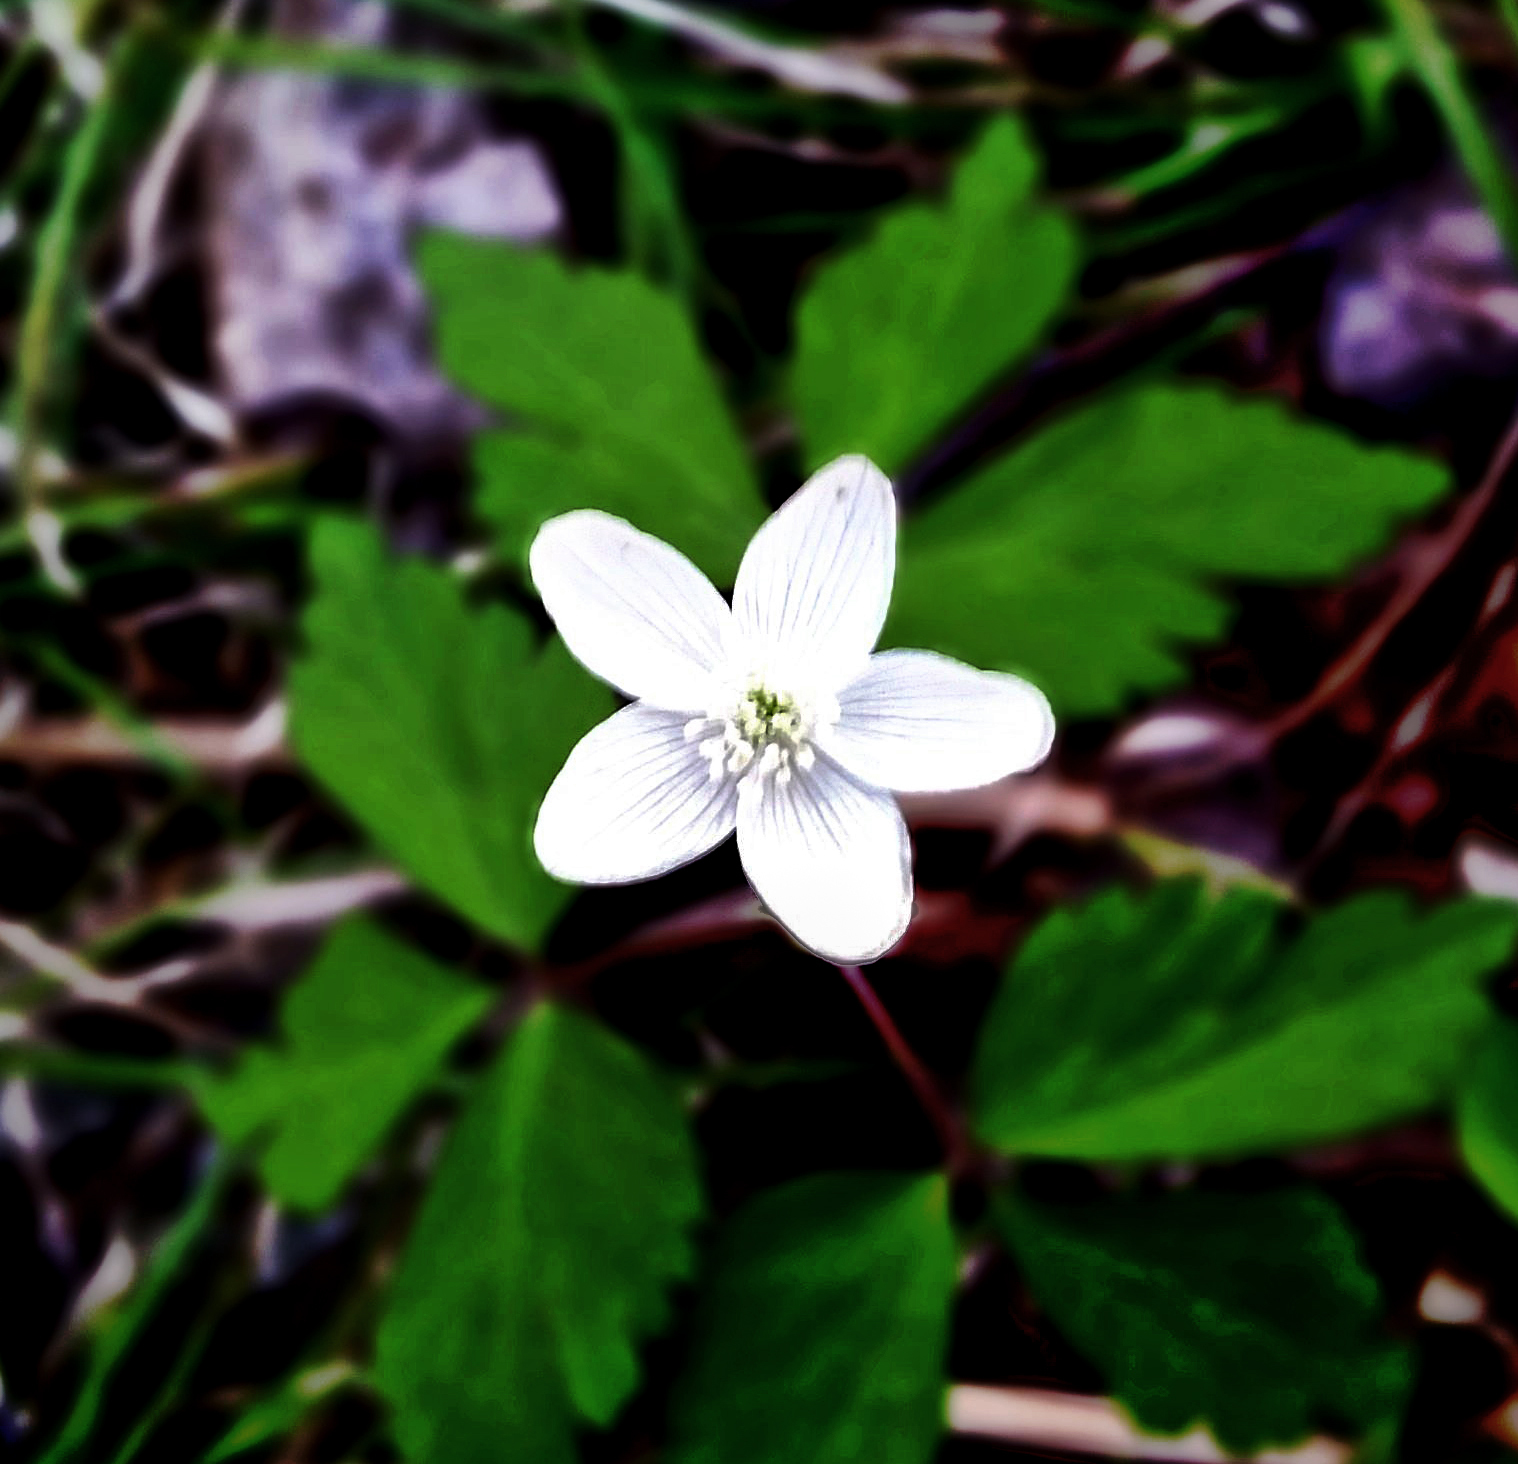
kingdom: Plantae
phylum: Tracheophyta
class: Magnoliopsida
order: Ranunculales
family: Ranunculaceae
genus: Anemone
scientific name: Anemone quinquefolia
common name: Wood anemone
